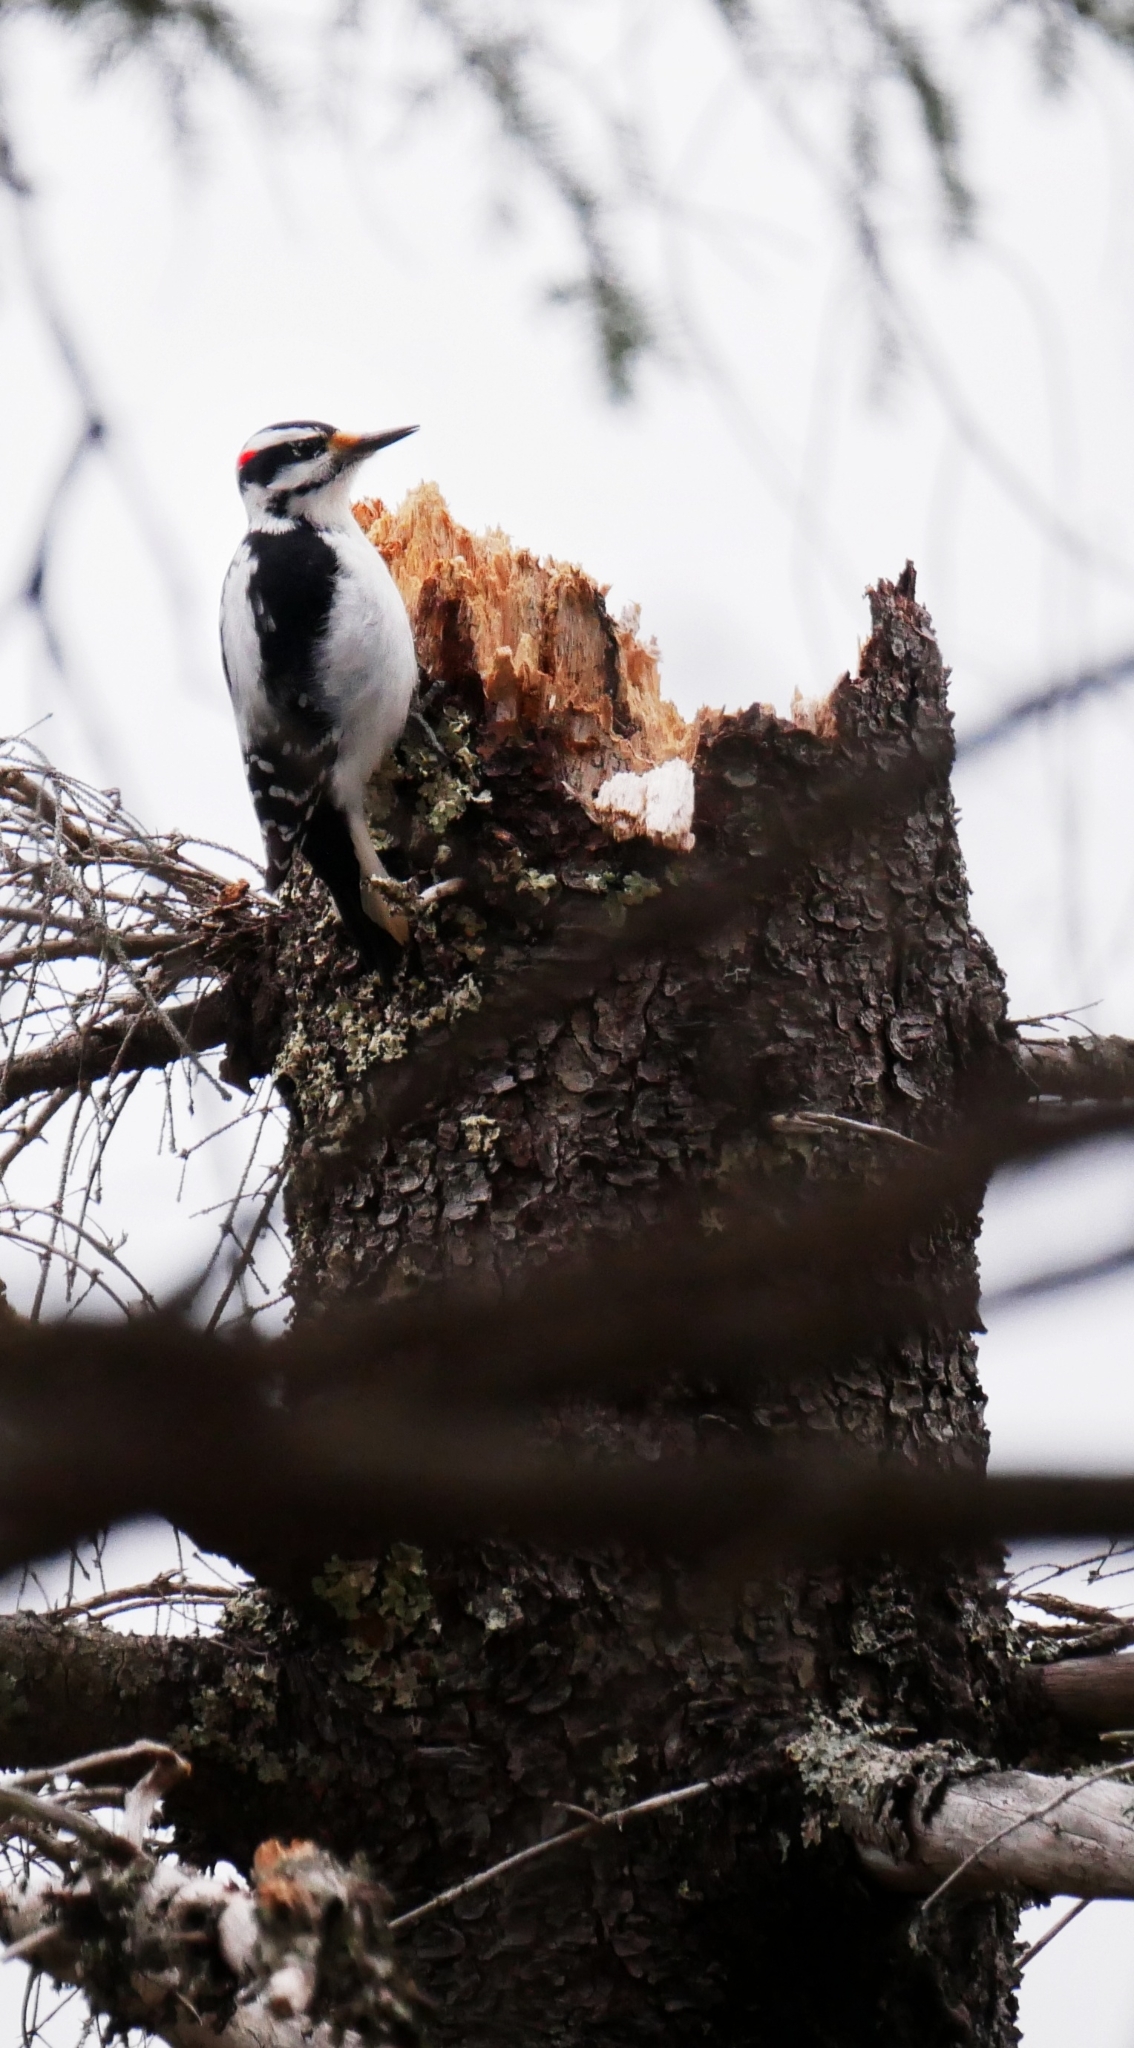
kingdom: Animalia
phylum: Chordata
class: Aves
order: Piciformes
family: Picidae
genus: Leuconotopicus
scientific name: Leuconotopicus villosus
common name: Hairy woodpecker
